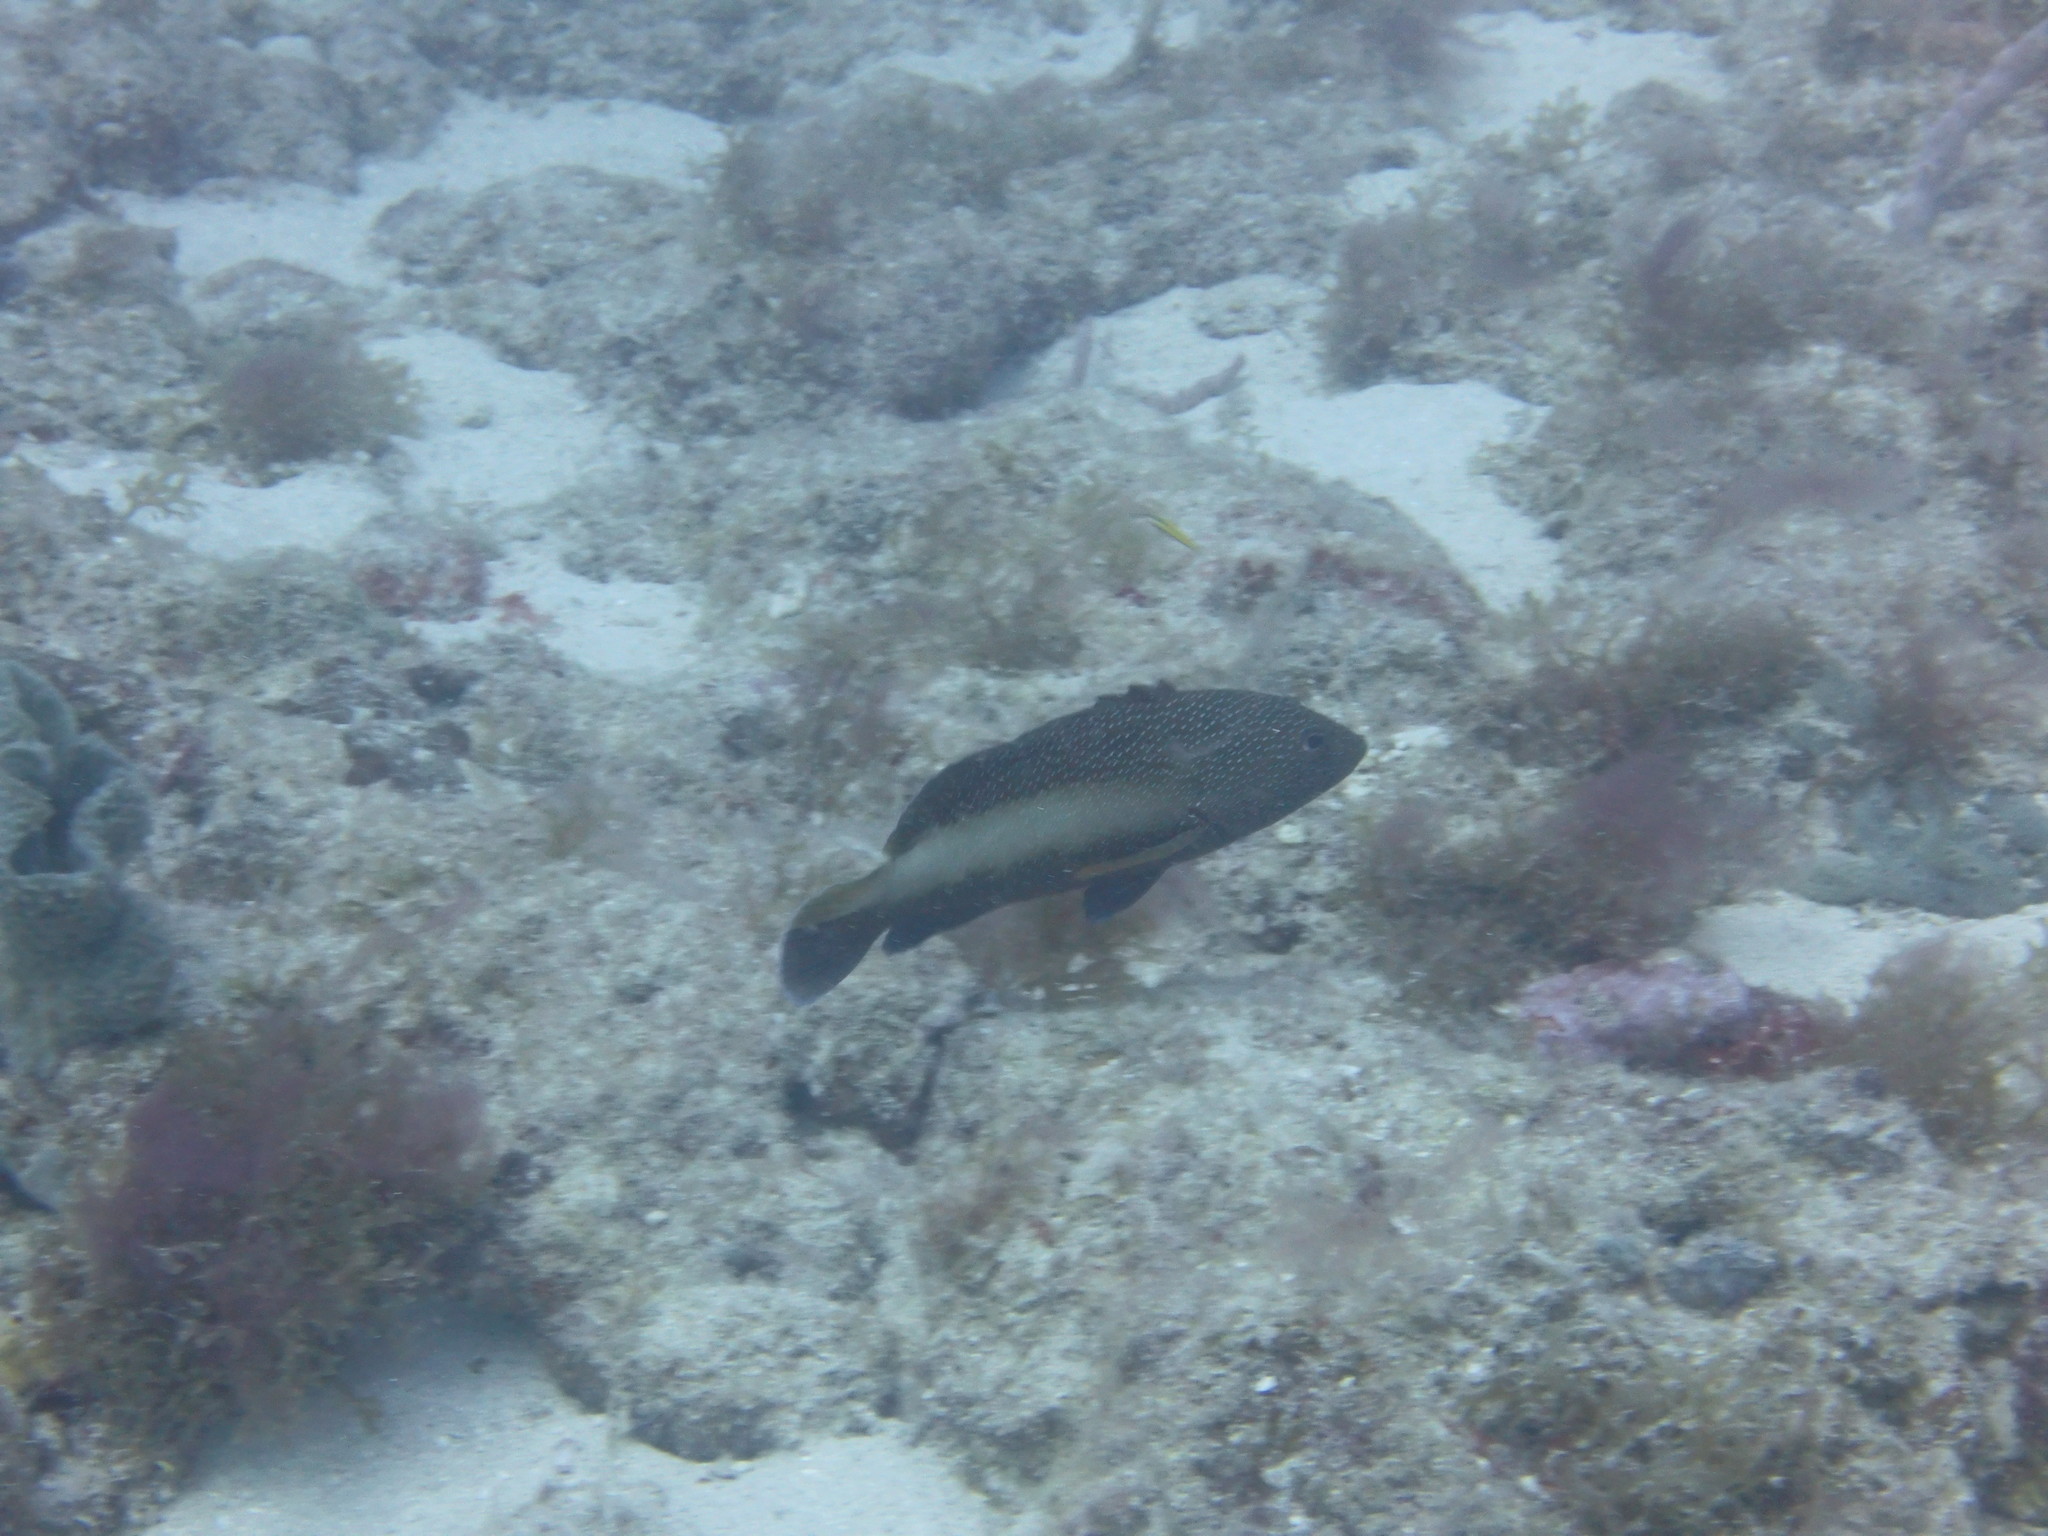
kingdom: Animalia
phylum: Chordata
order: Perciformes
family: Serranidae
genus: Cephalopholis
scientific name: Cephalopholis fulva
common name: Butterfish
